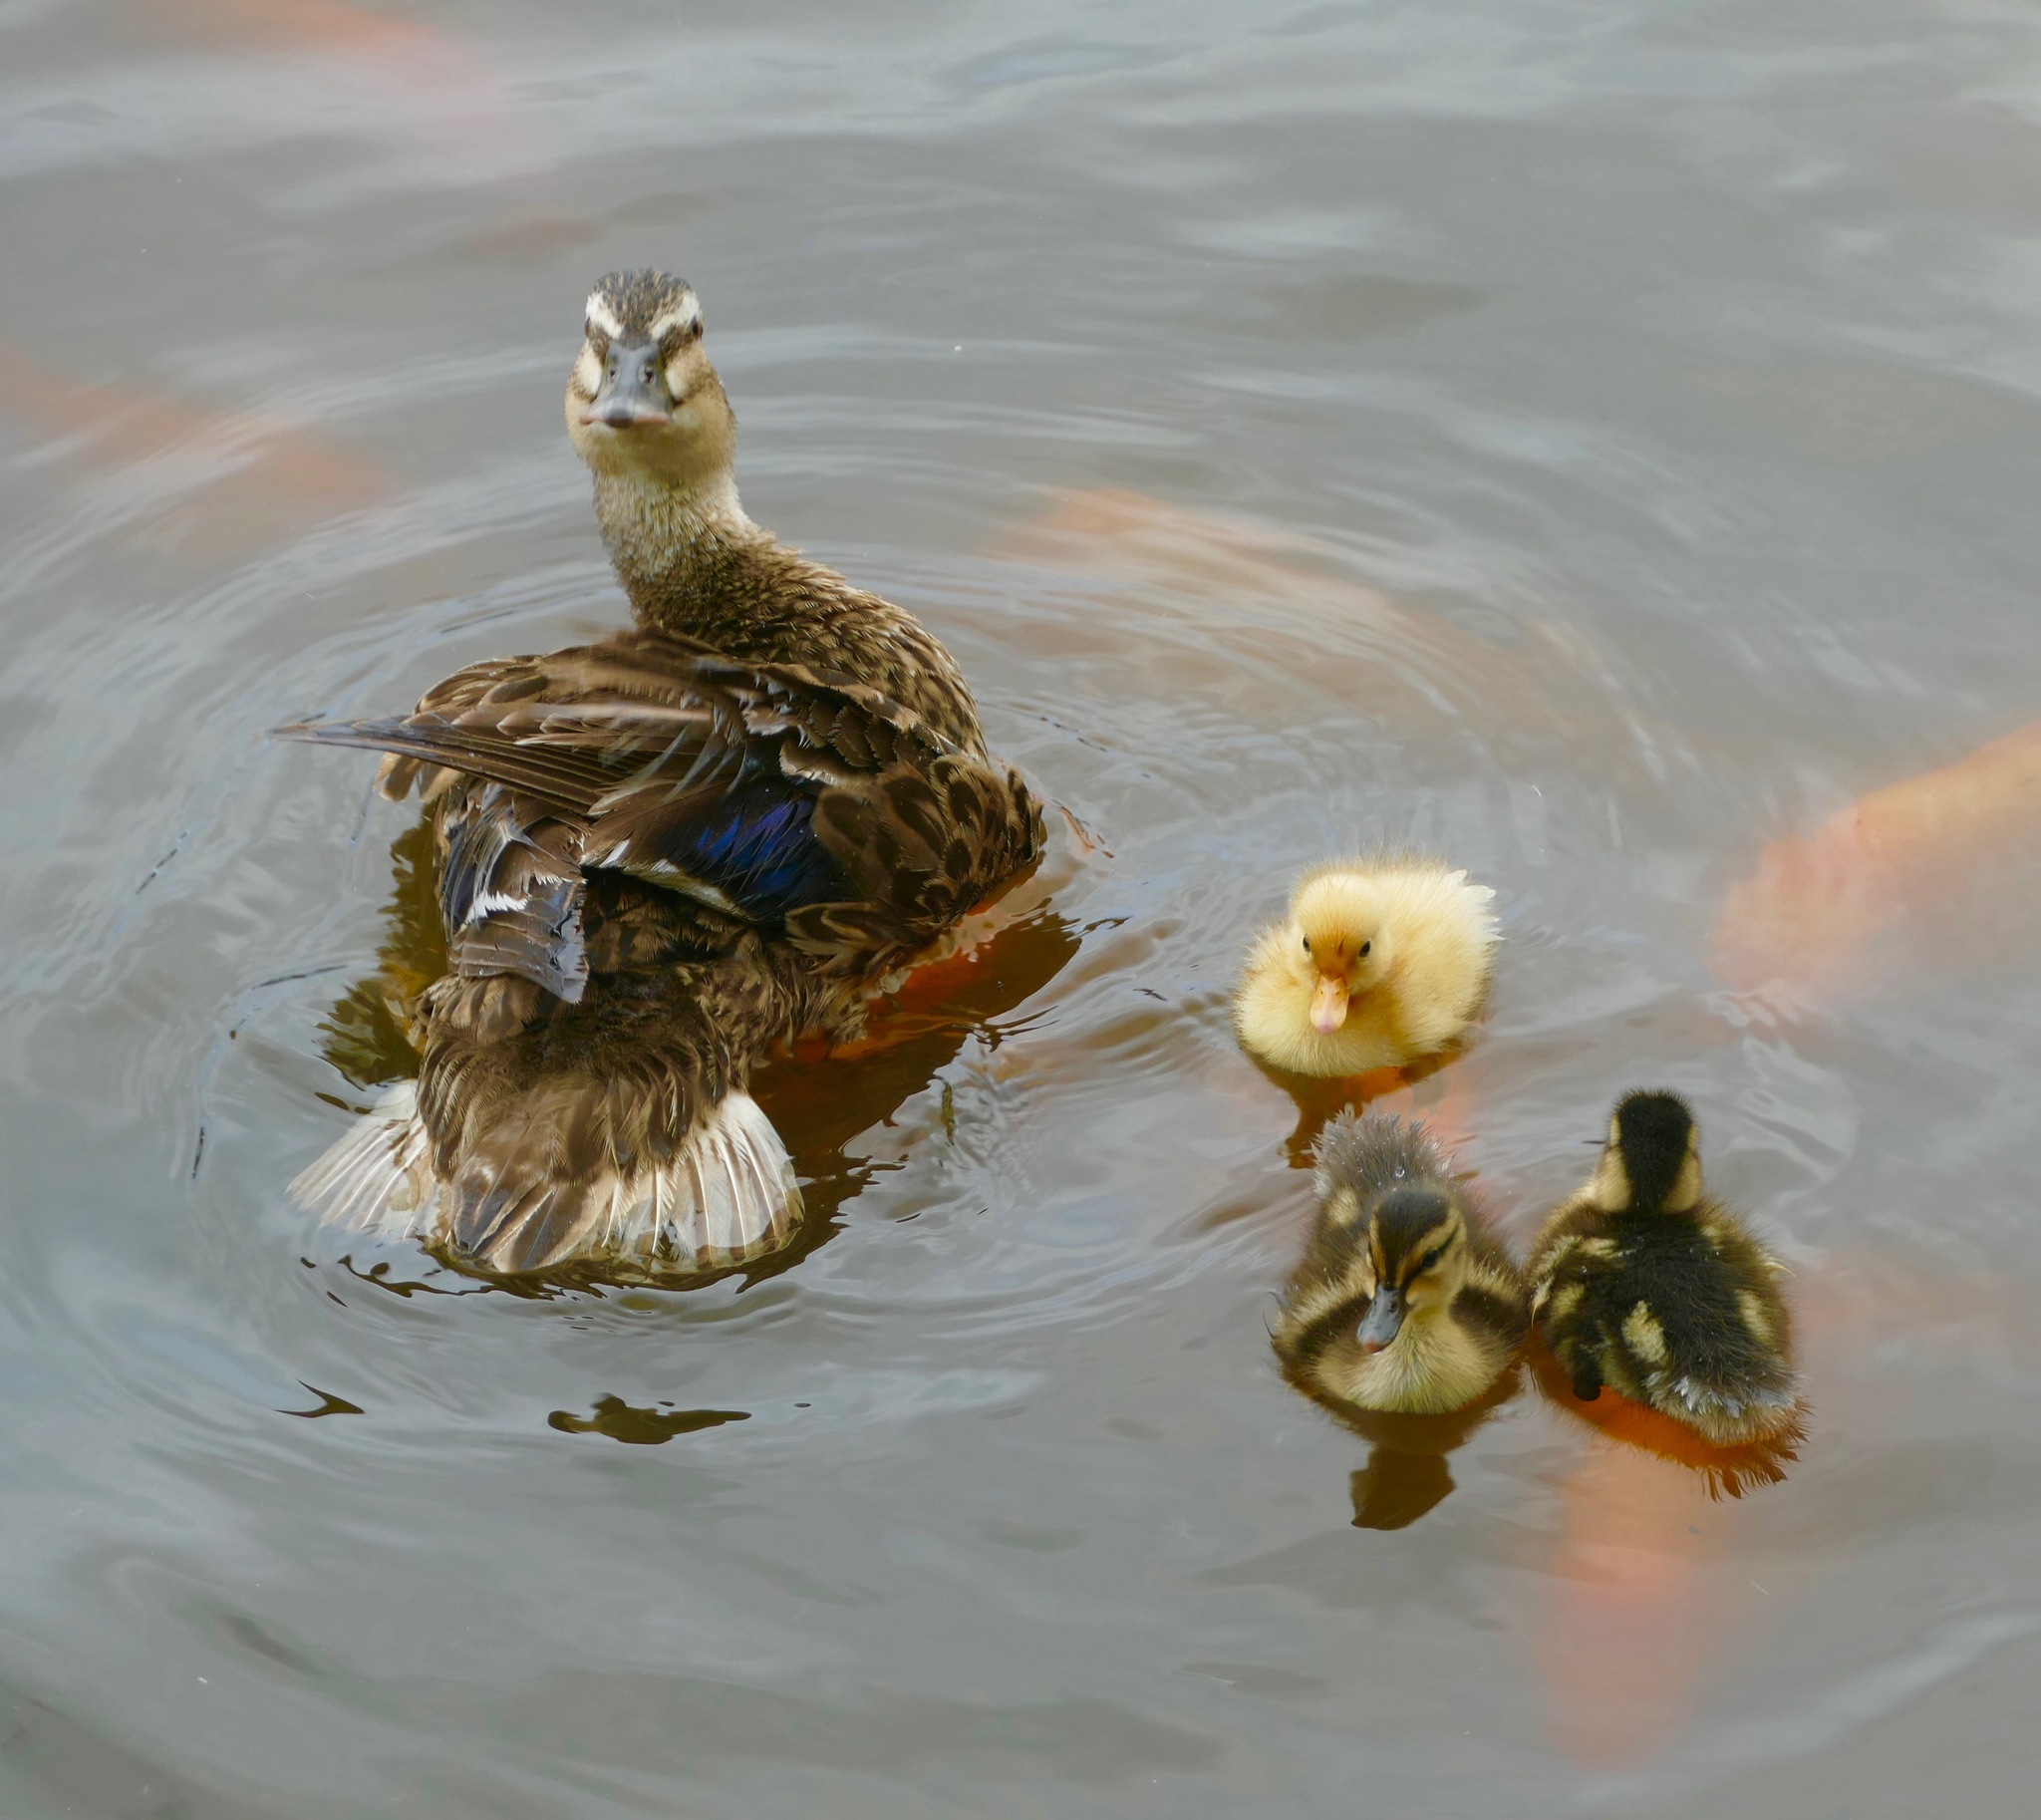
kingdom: Animalia
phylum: Chordata
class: Aves
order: Anseriformes
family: Anatidae
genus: Anas
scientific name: Anas platyrhynchos
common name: Mallard
